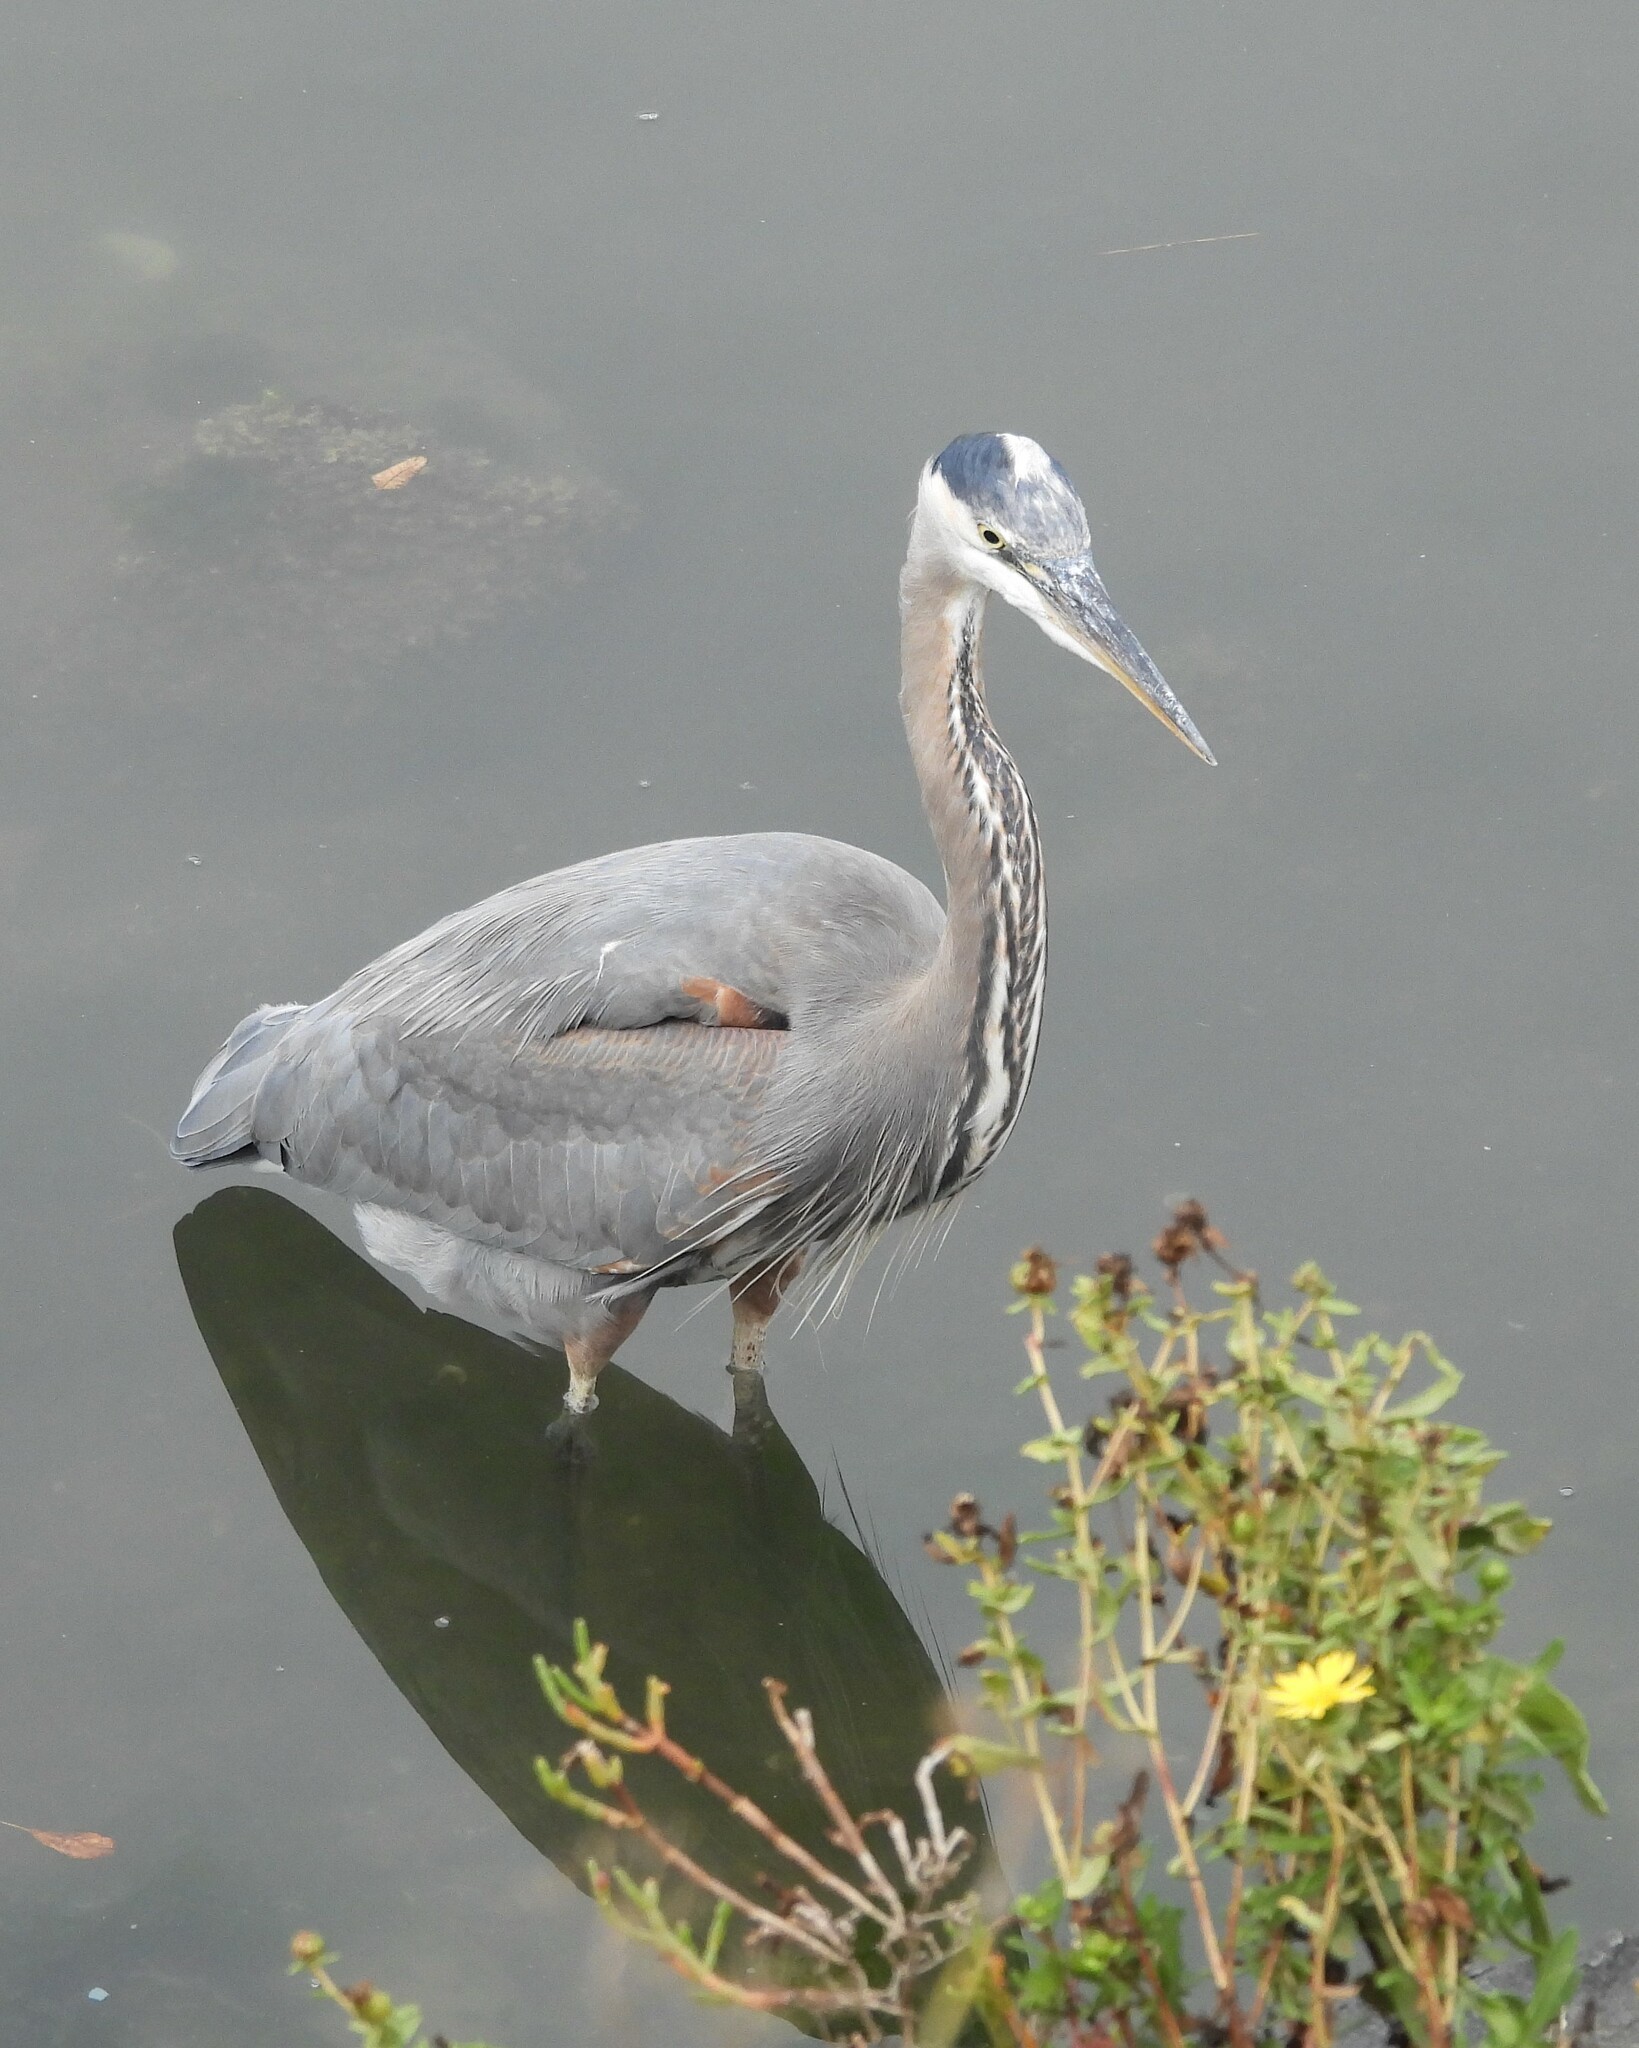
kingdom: Animalia
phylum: Chordata
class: Aves
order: Pelecaniformes
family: Ardeidae
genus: Ardea
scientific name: Ardea herodias
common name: Great blue heron
